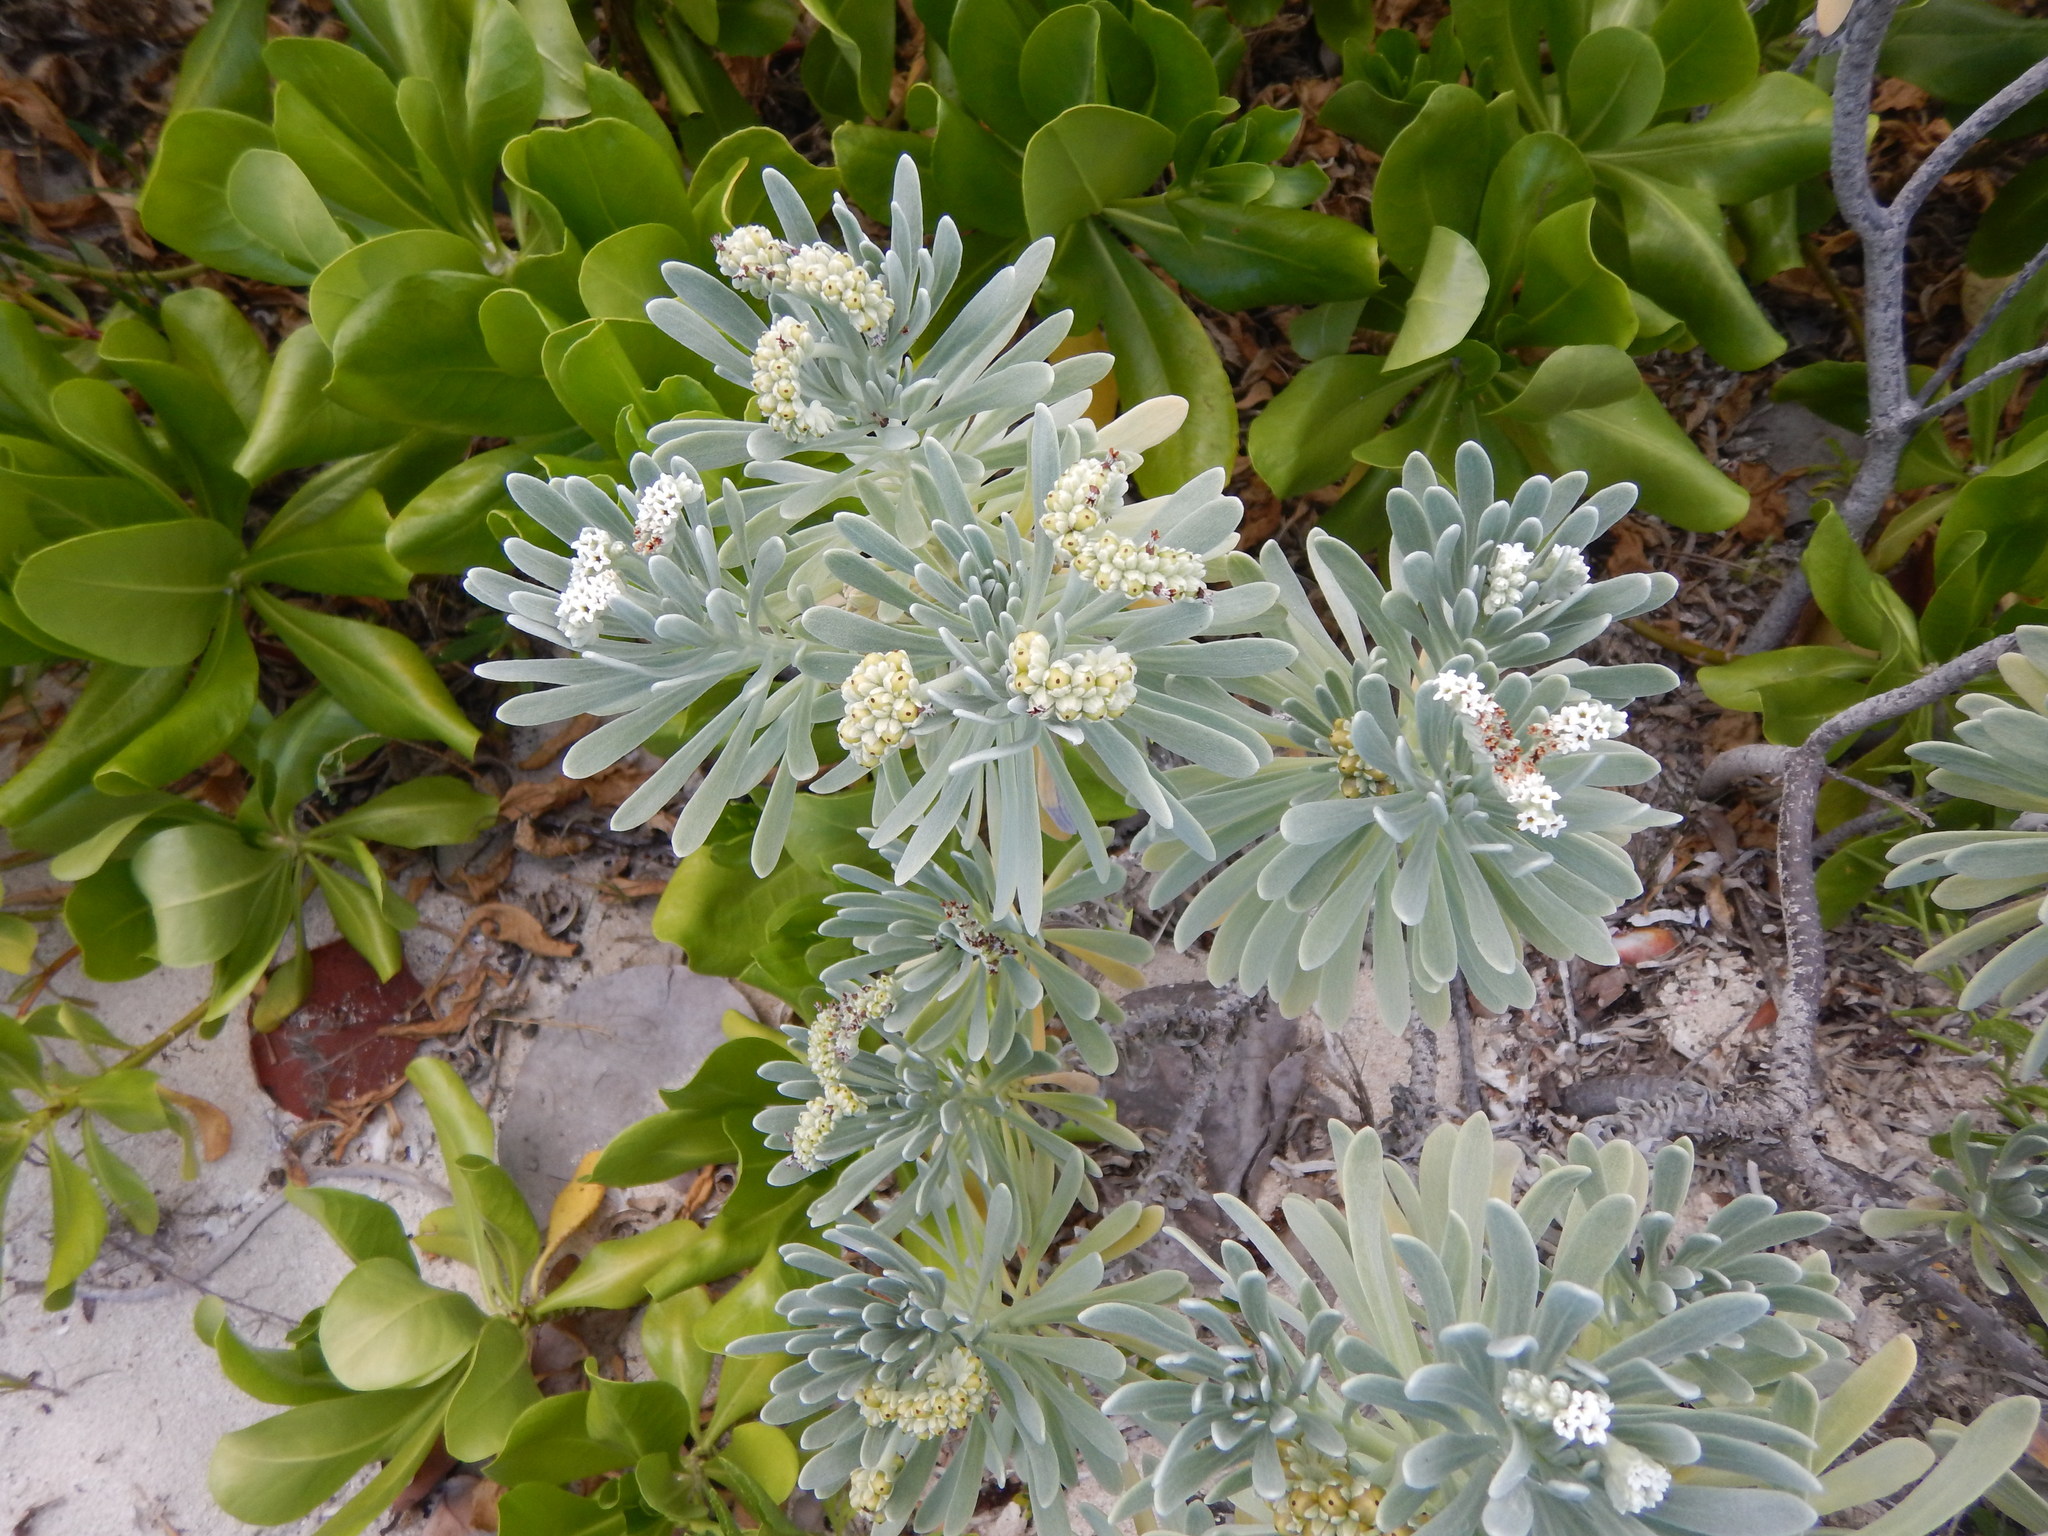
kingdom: Plantae
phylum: Tracheophyta
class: Magnoliopsida
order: Boraginales
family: Heliotropiaceae
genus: Tournefortia
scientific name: Tournefortia gnaphalodes
